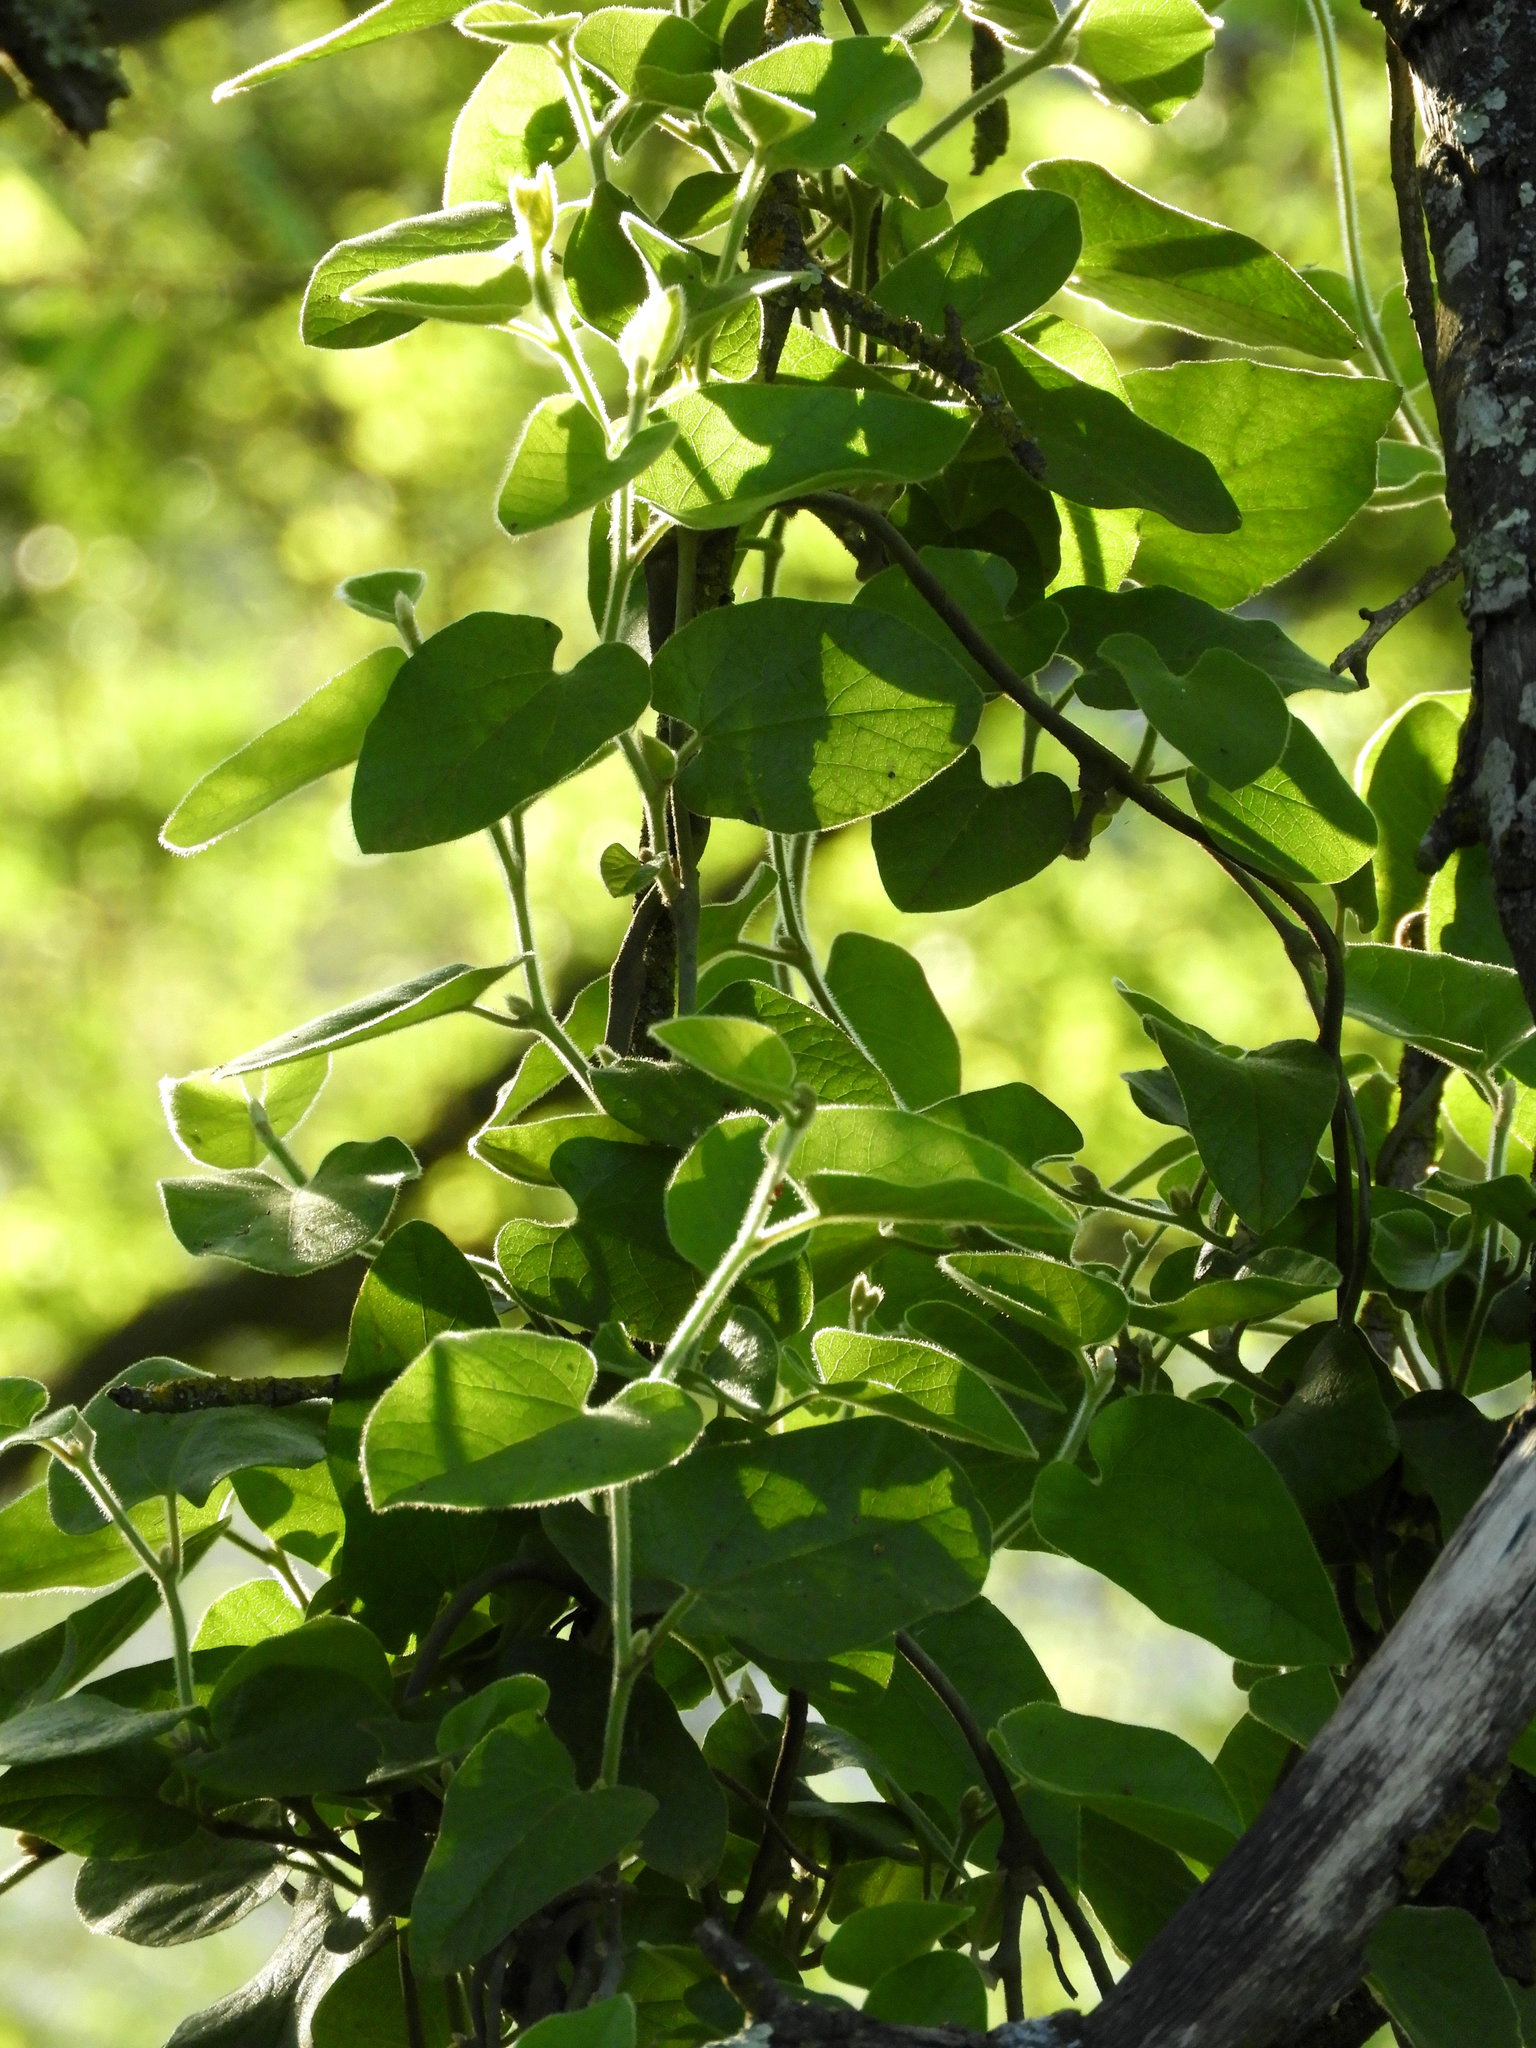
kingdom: Plantae
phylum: Tracheophyta
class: Magnoliopsida
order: Piperales
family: Aristolochiaceae
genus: Isotrema
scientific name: Isotrema californicum
